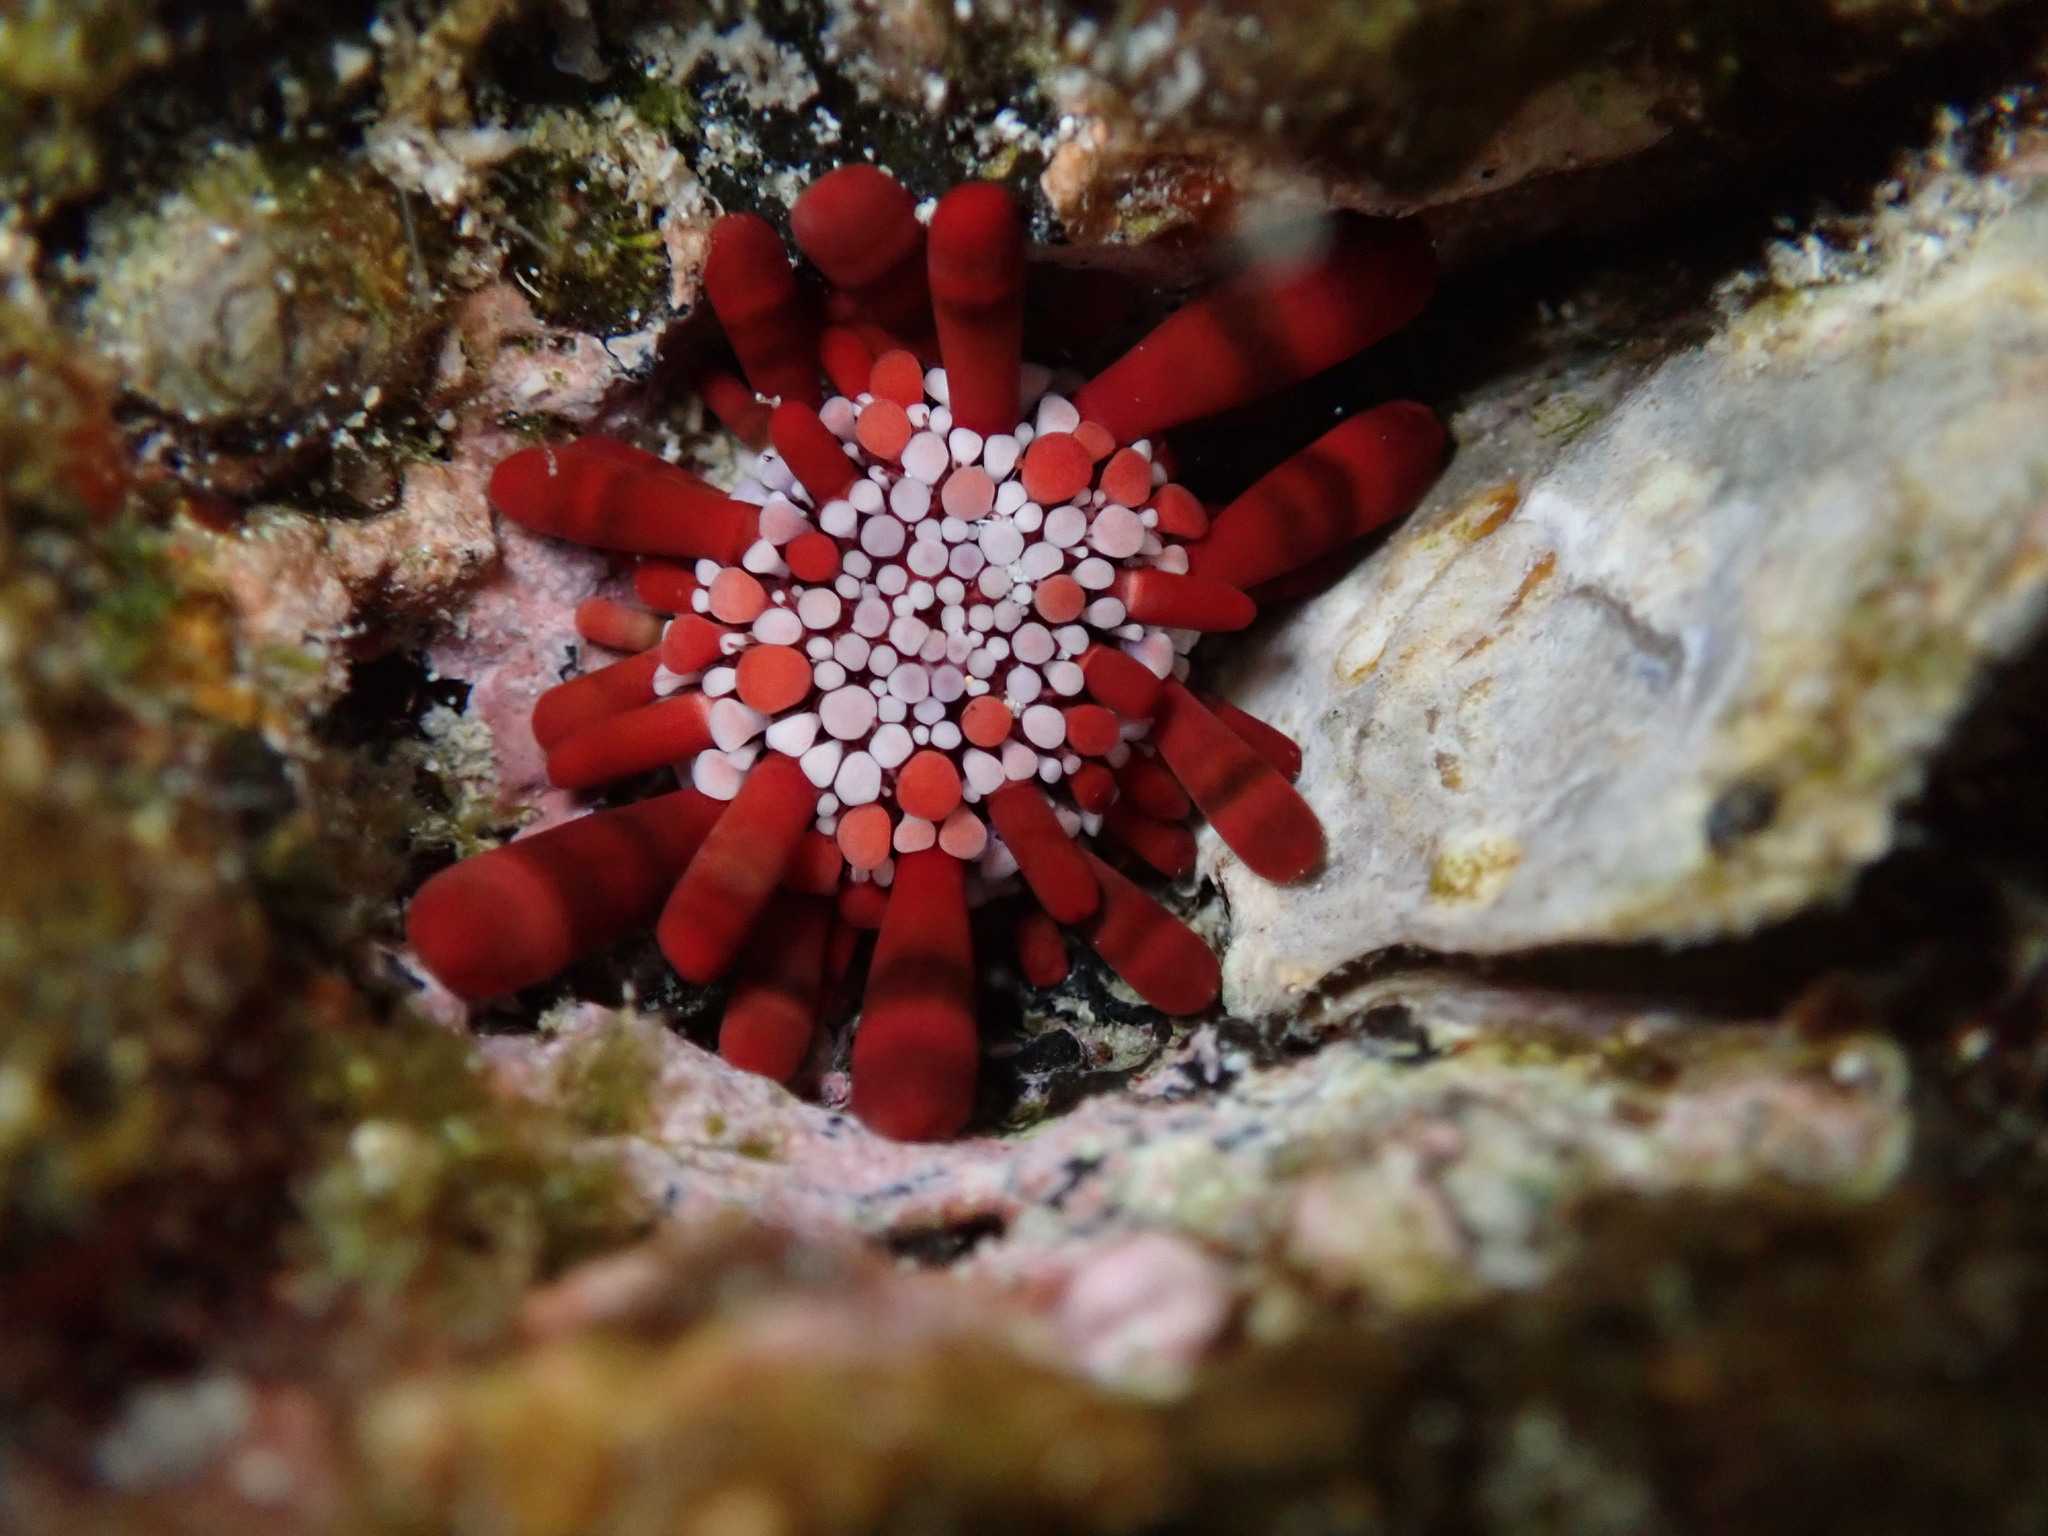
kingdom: Animalia
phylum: Echinodermata
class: Echinoidea
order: Camarodonta
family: Echinometridae
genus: Heterocentrotus
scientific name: Heterocentrotus mamillatus
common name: Slate pencil urchin
